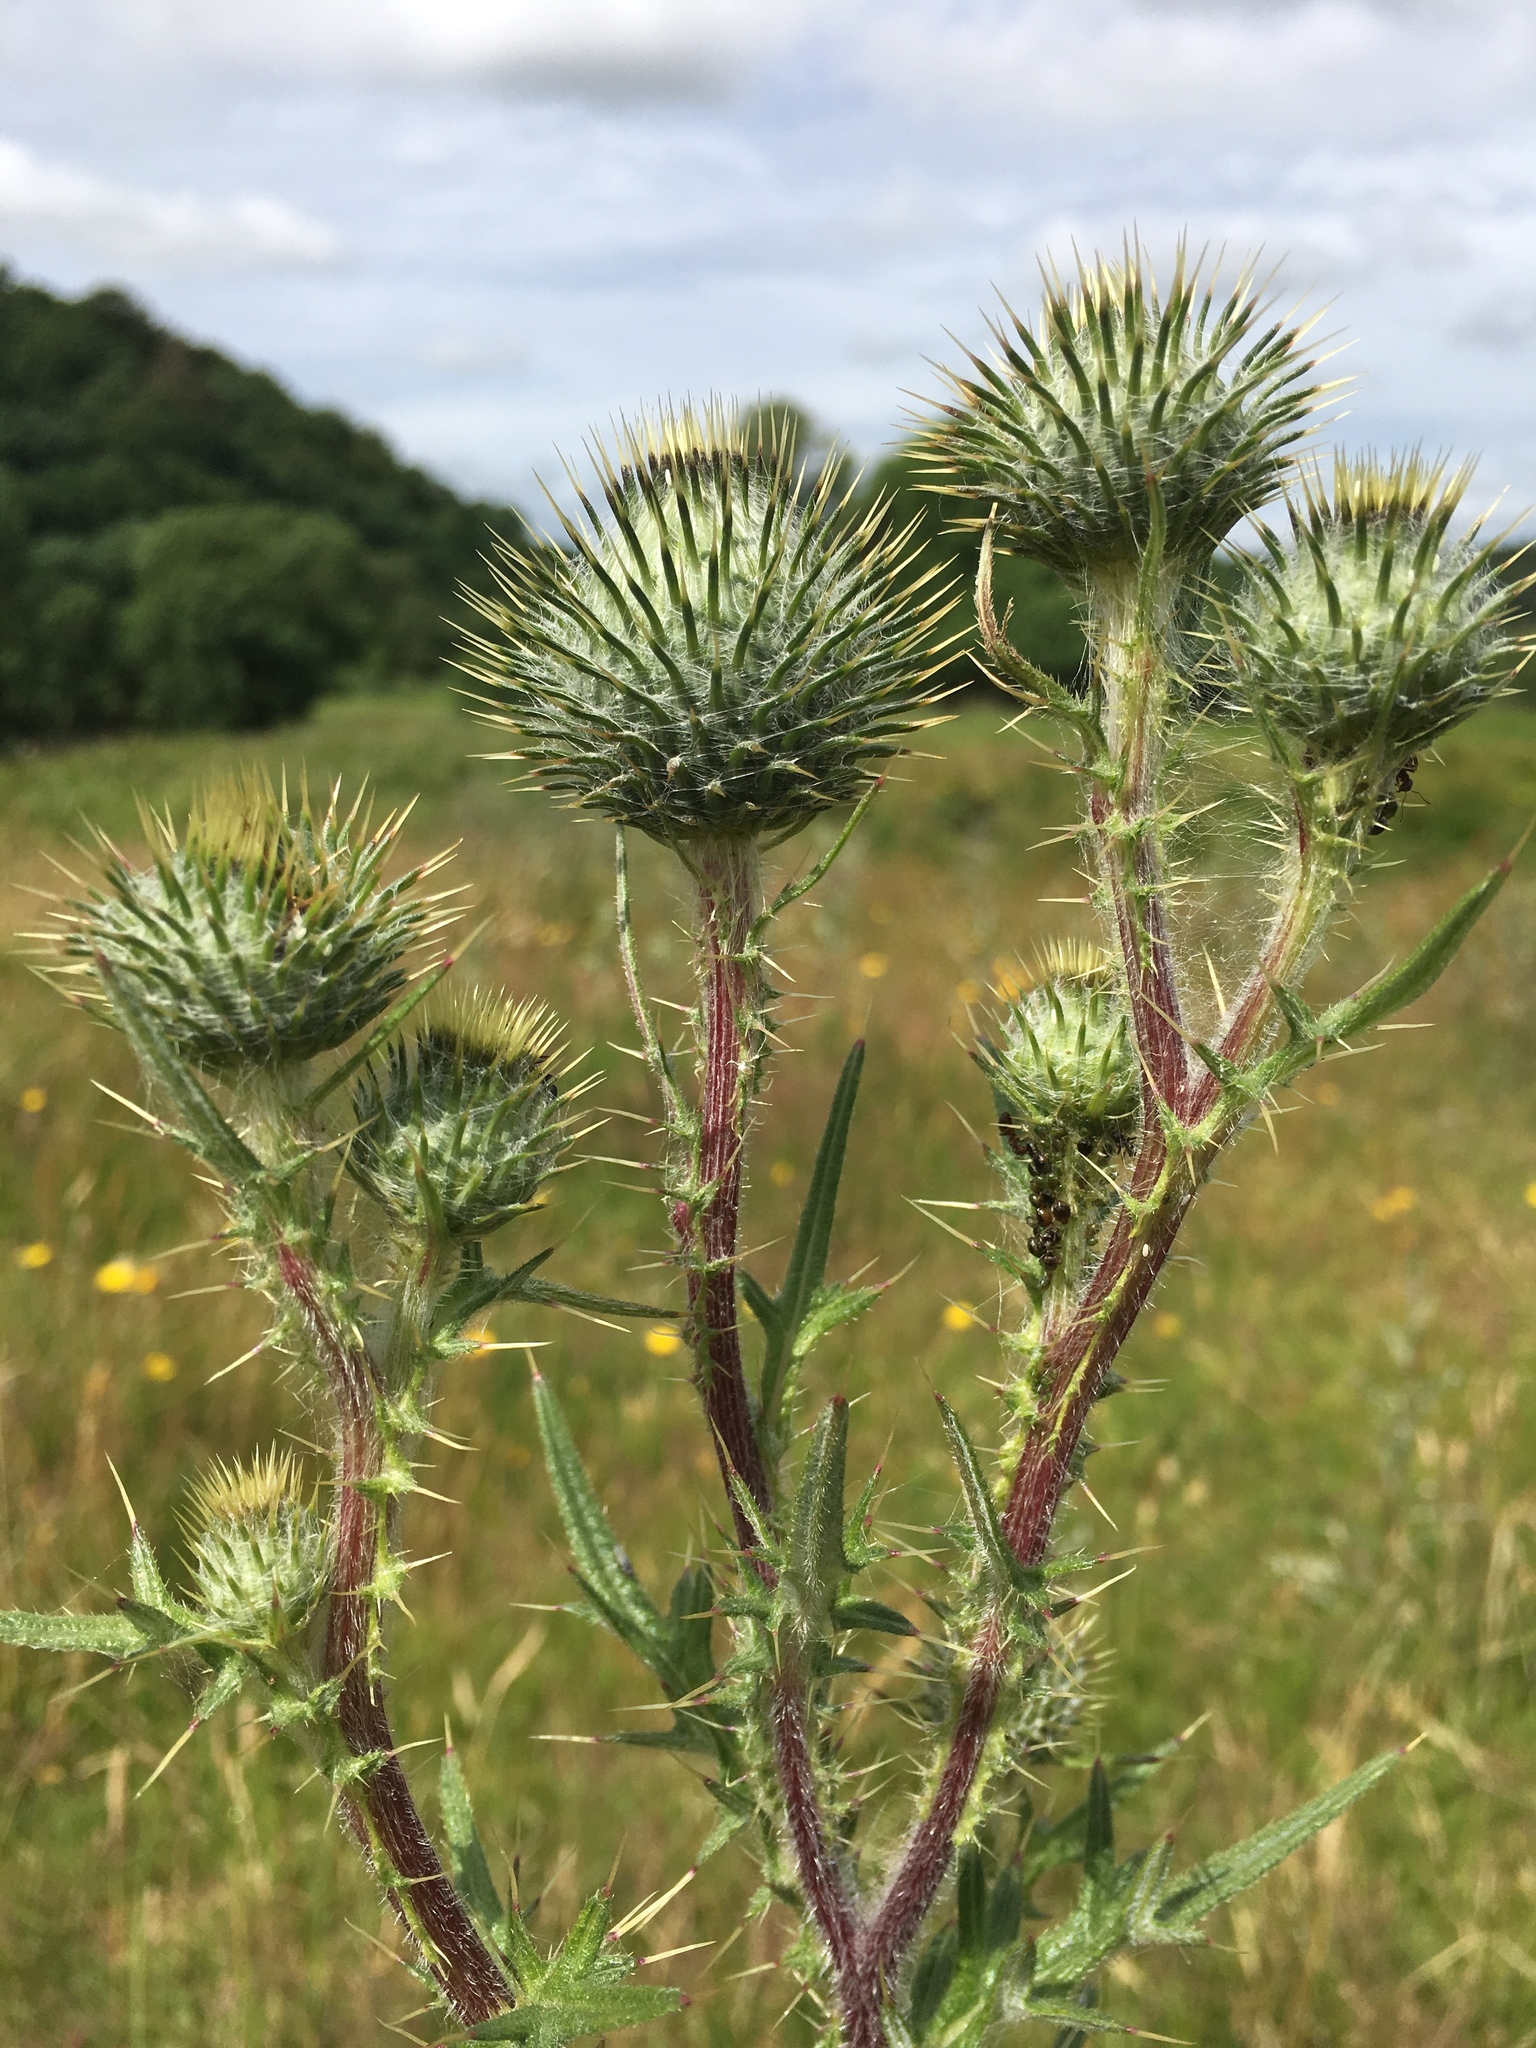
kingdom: Plantae
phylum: Tracheophyta
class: Magnoliopsida
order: Asterales
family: Asteraceae
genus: Cirsium
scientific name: Cirsium vulgare
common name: Bull thistle
